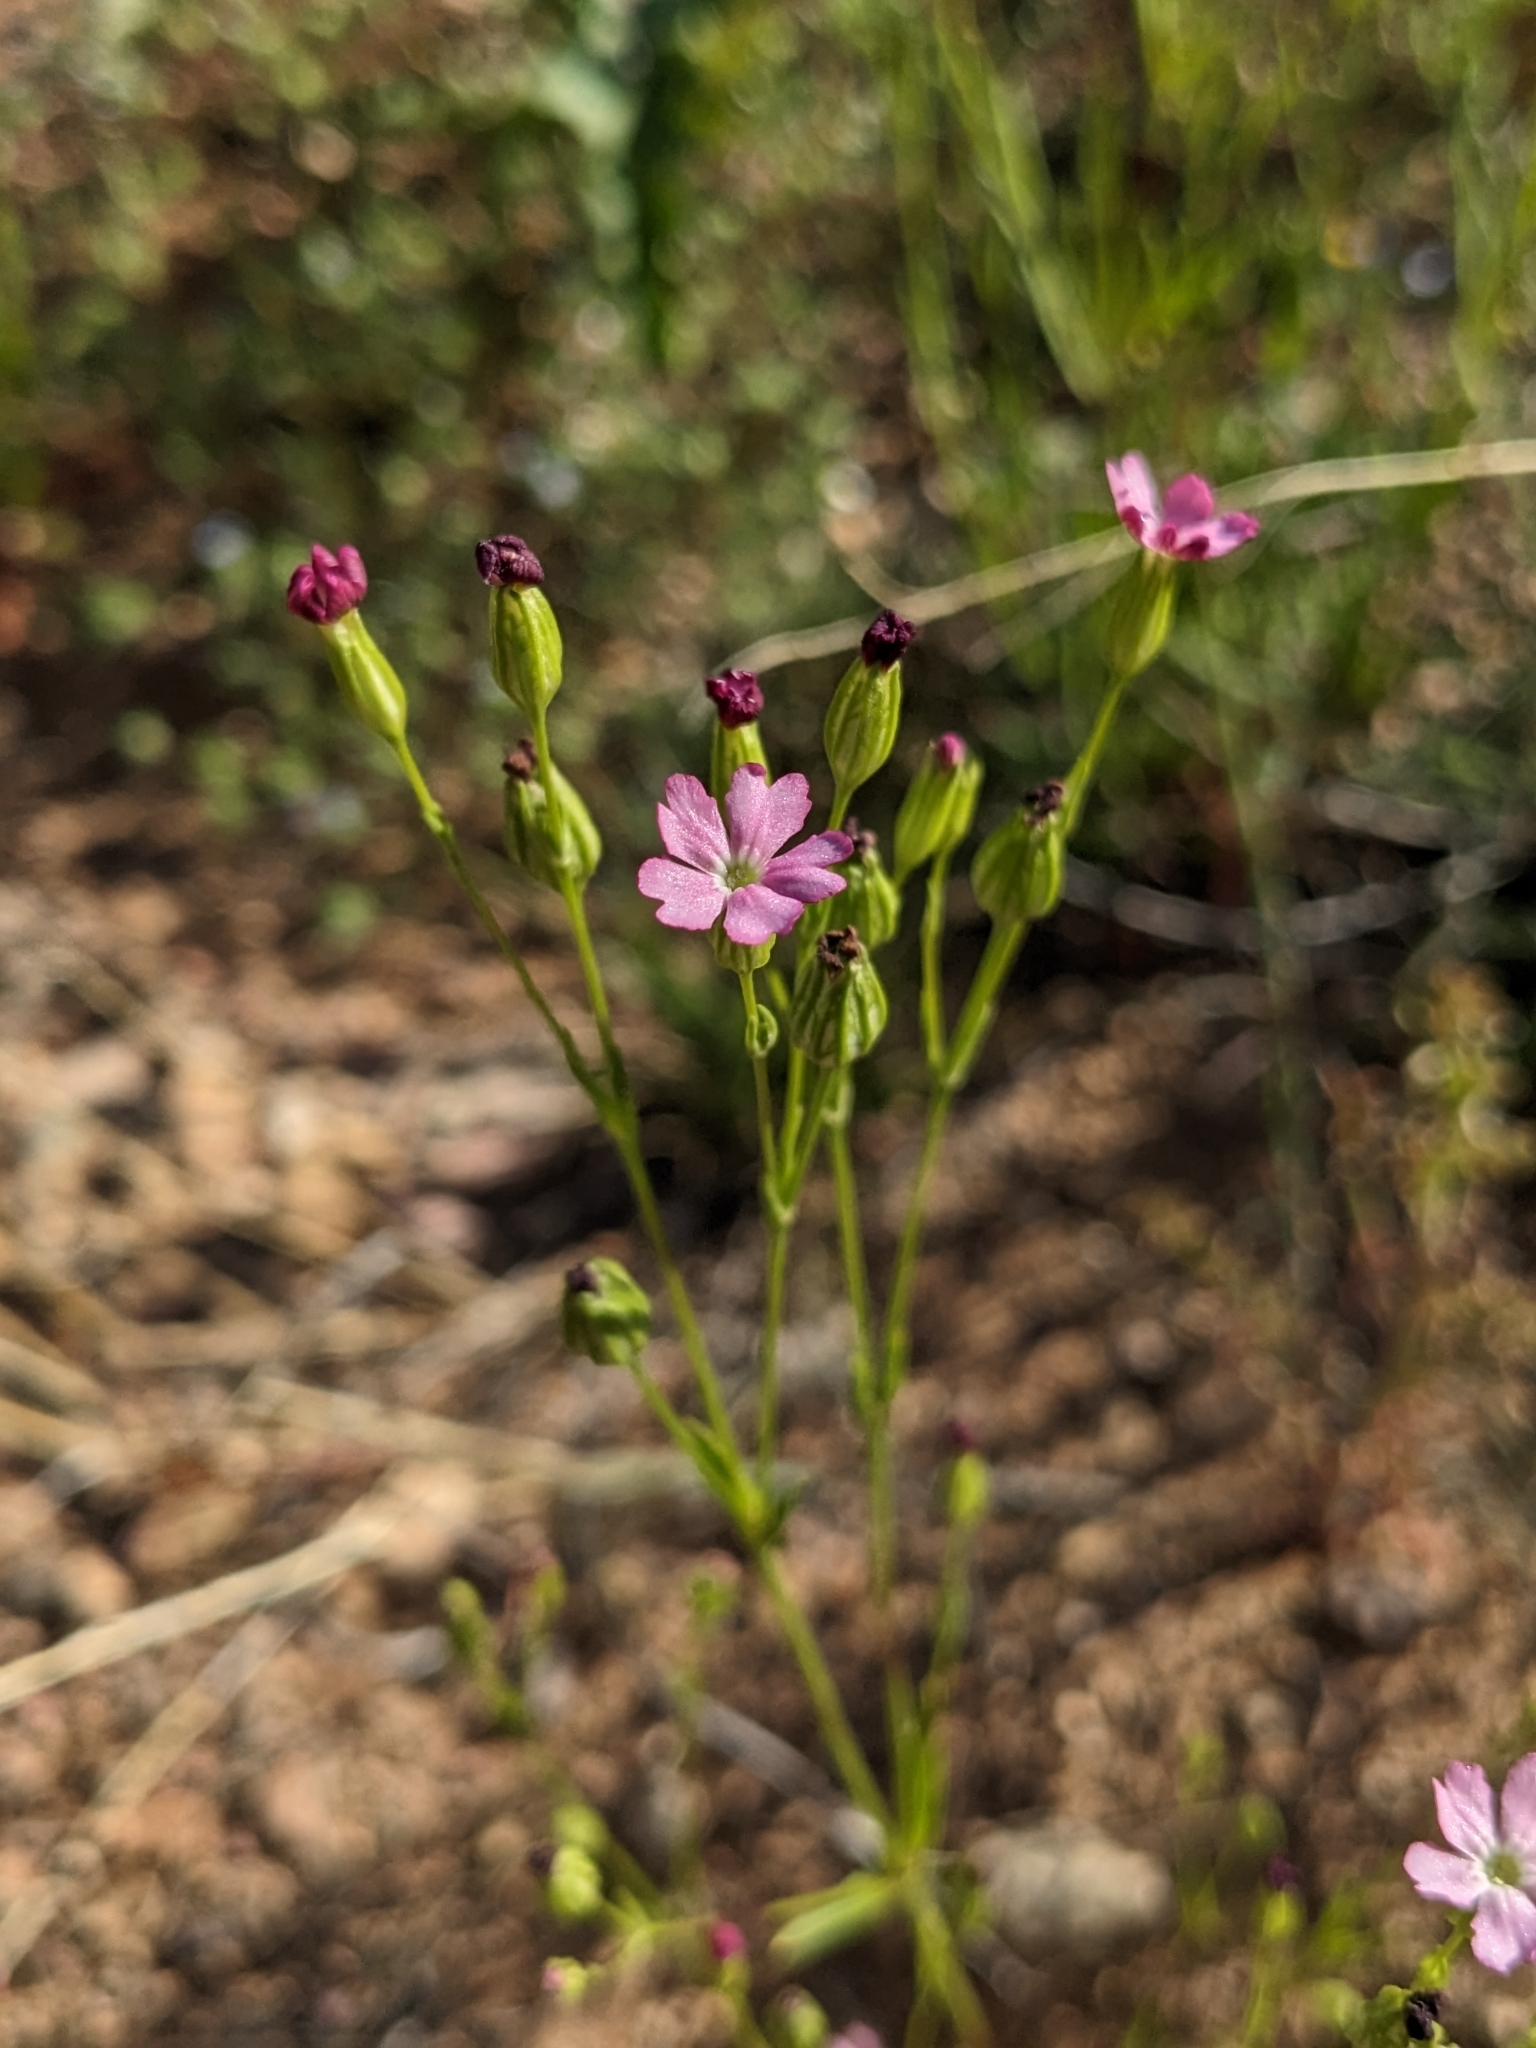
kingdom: Plantae
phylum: Tracheophyta
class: Magnoliopsida
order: Caryophyllales
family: Caryophyllaceae
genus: Silene
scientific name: Silene antirrhina
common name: Sleepy catchfly
